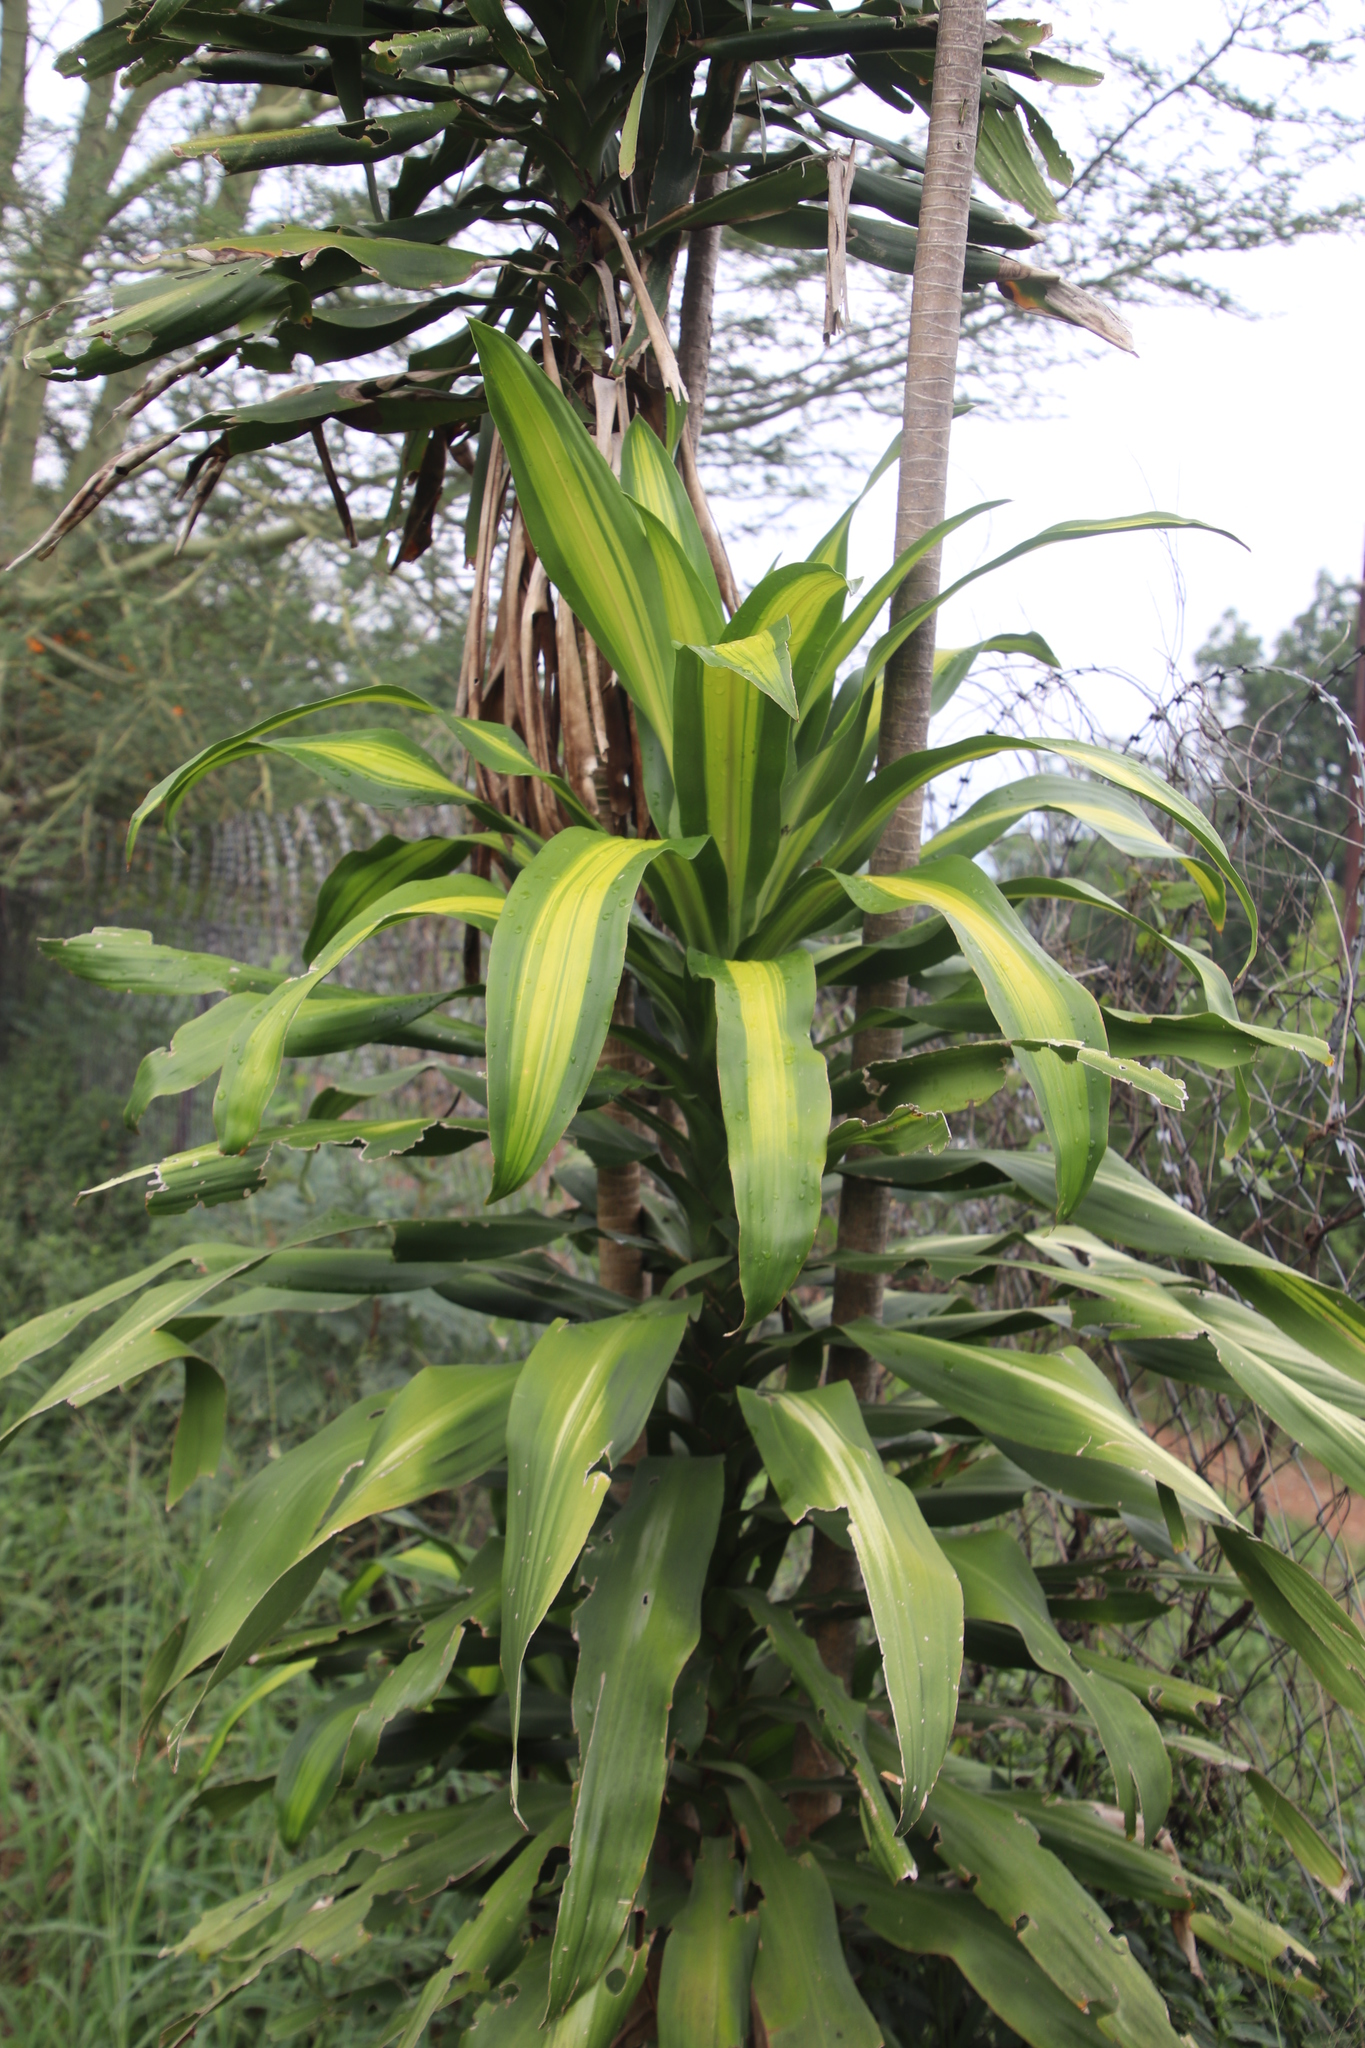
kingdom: Plantae
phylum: Tracheophyta
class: Liliopsida
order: Asparagales
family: Asparagaceae
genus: Dracaena
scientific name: Dracaena fragrans
